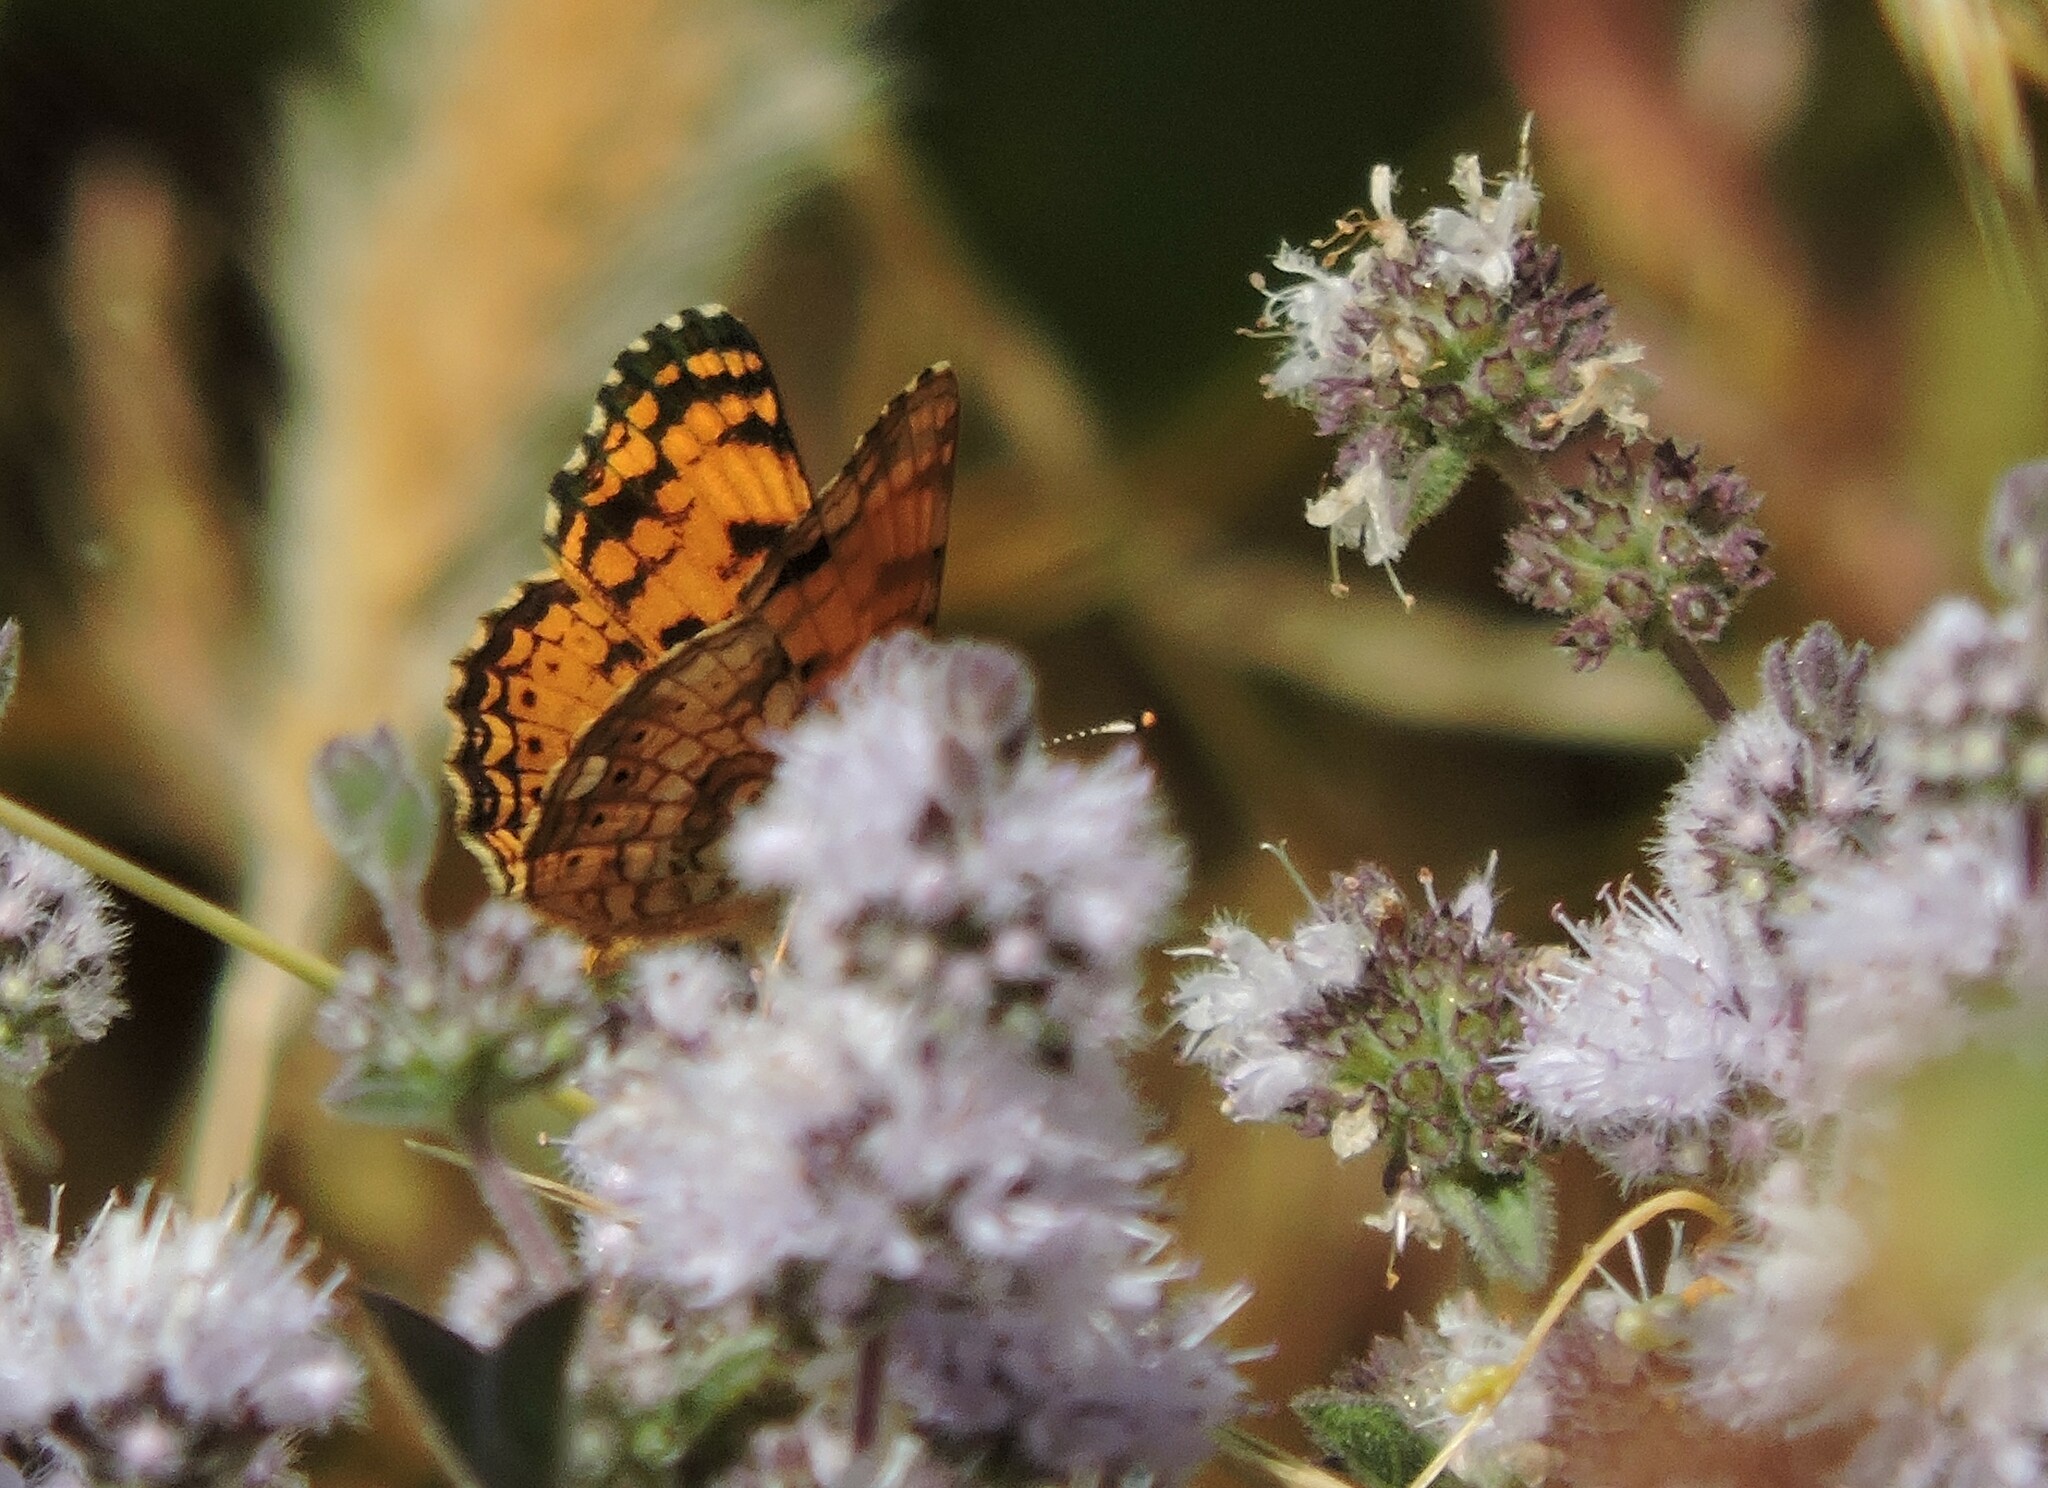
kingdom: Animalia
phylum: Arthropoda
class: Insecta
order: Lepidoptera
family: Nymphalidae
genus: Eresia
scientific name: Eresia aveyrona
